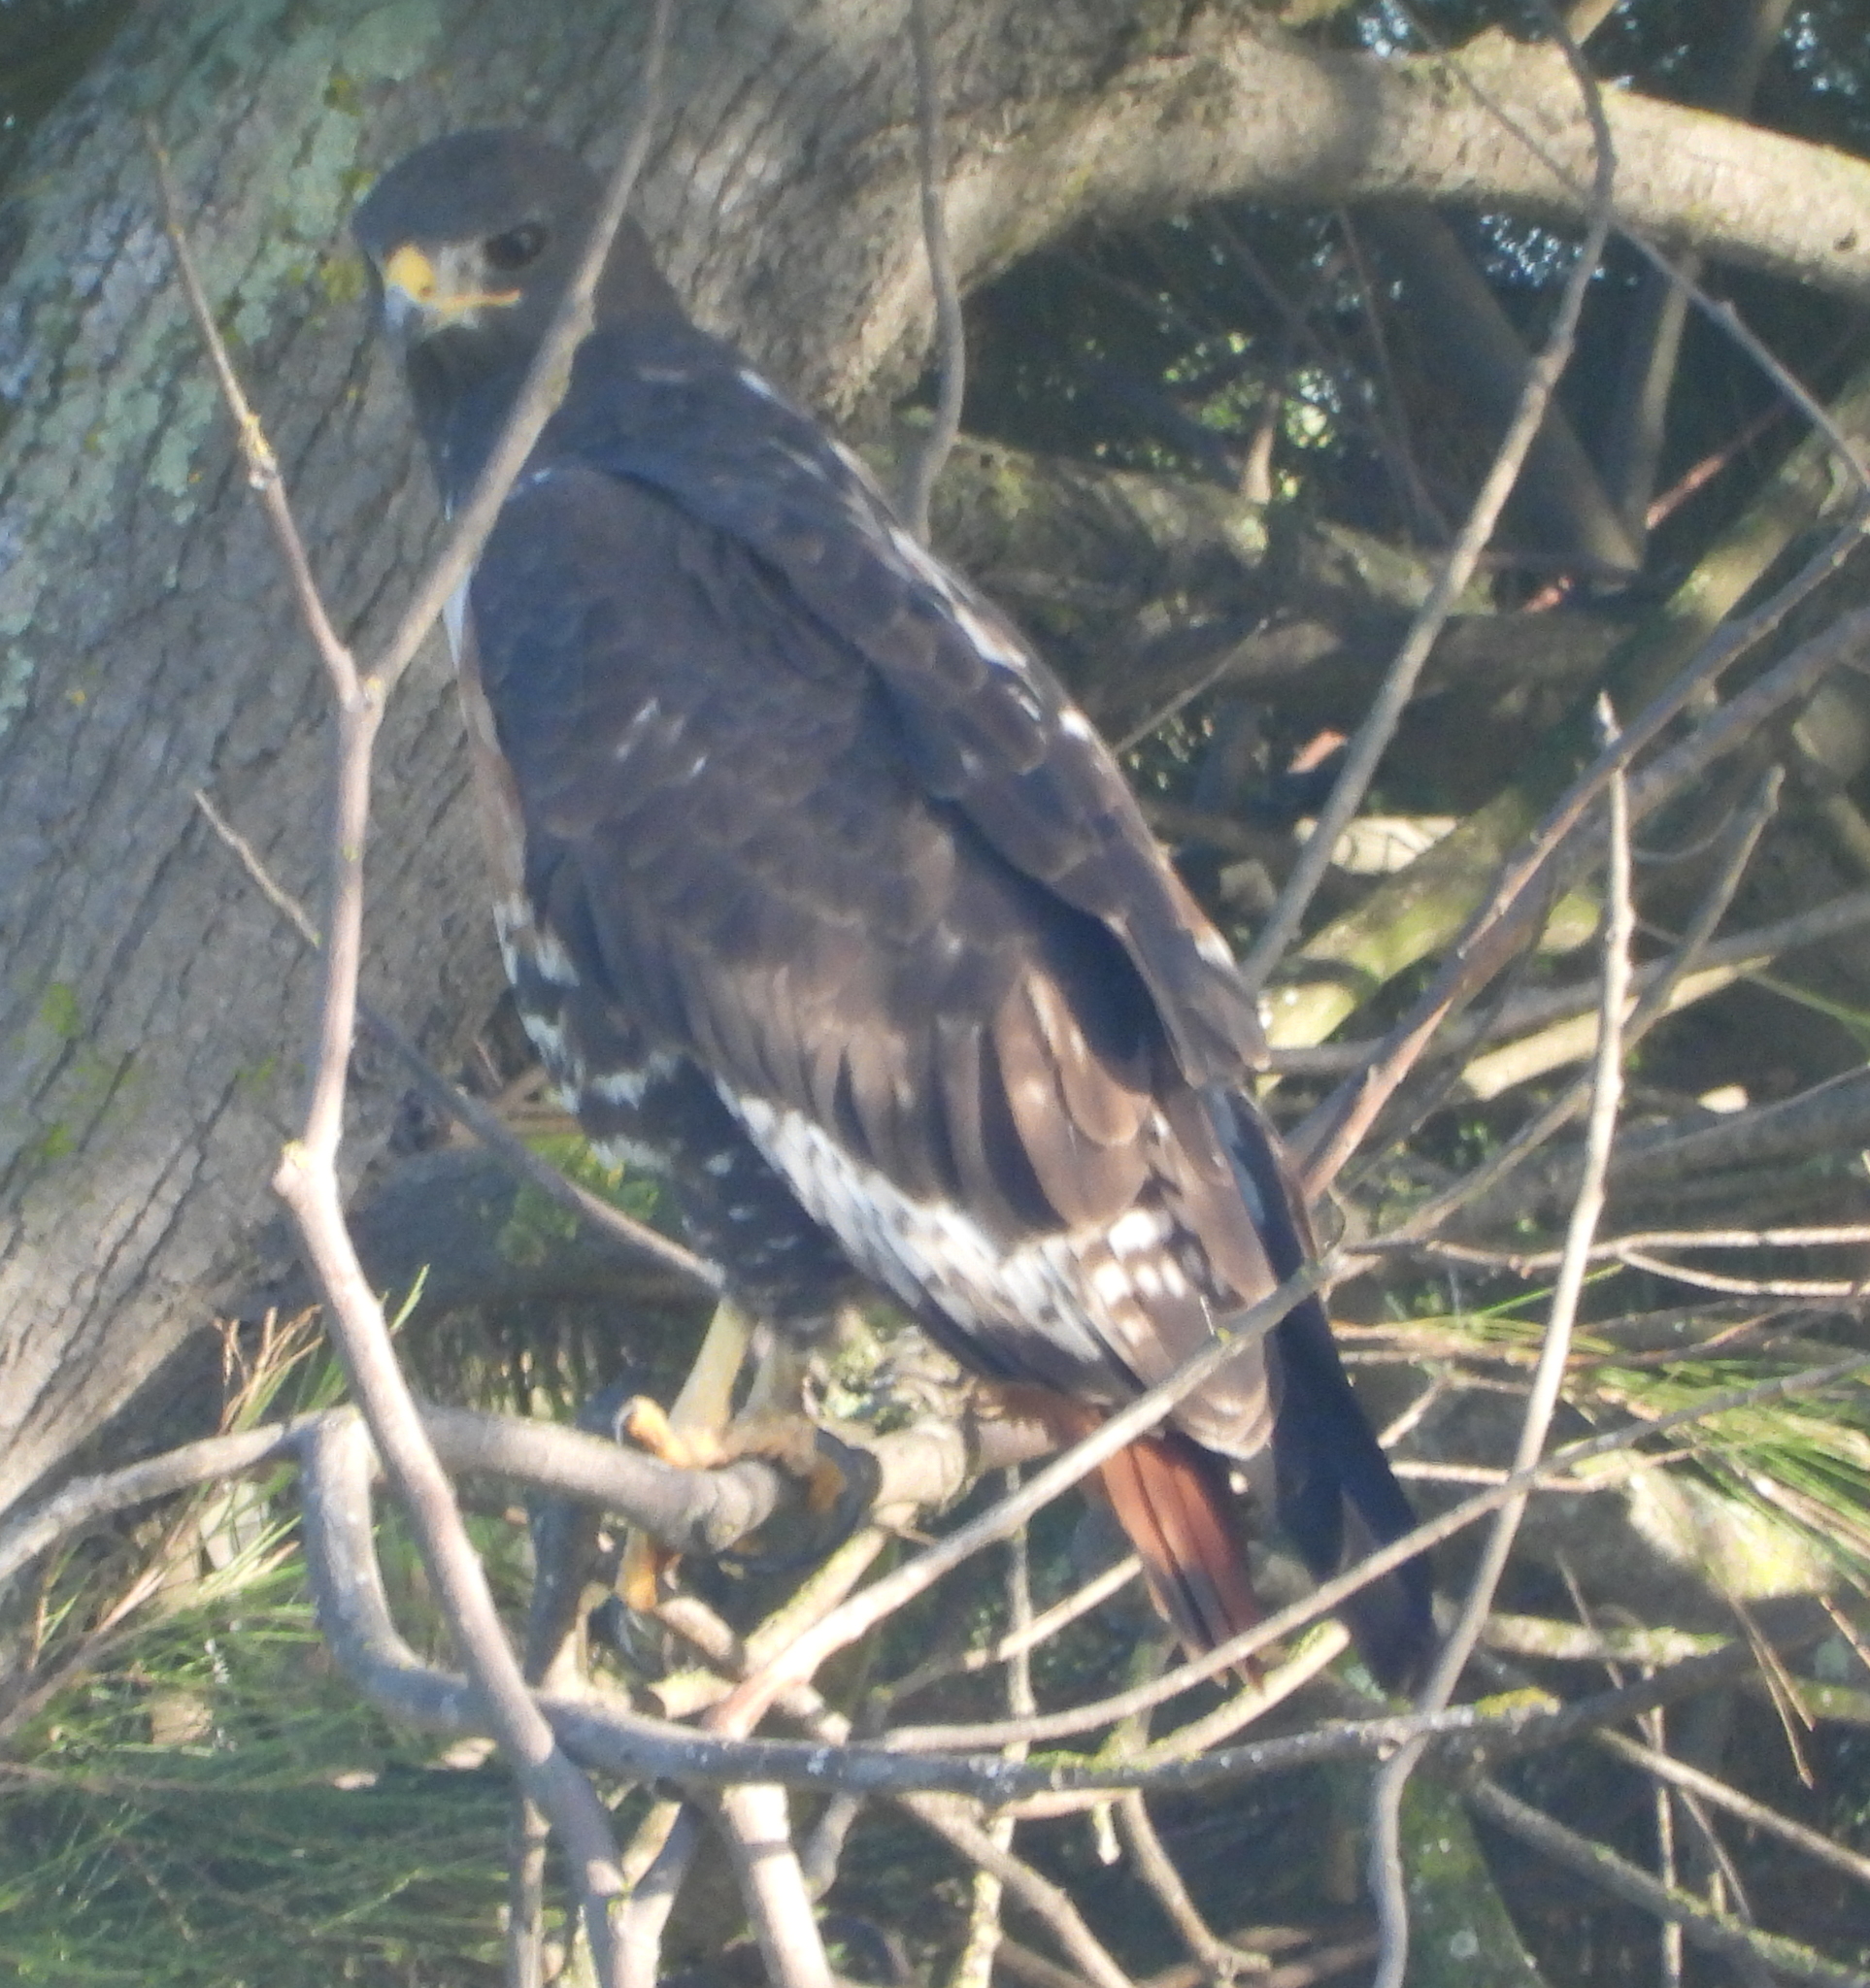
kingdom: Animalia
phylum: Chordata
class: Aves
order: Accipitriformes
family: Accipitridae
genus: Buteo
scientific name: Buteo rufofuscus
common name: Jackal buzzard
